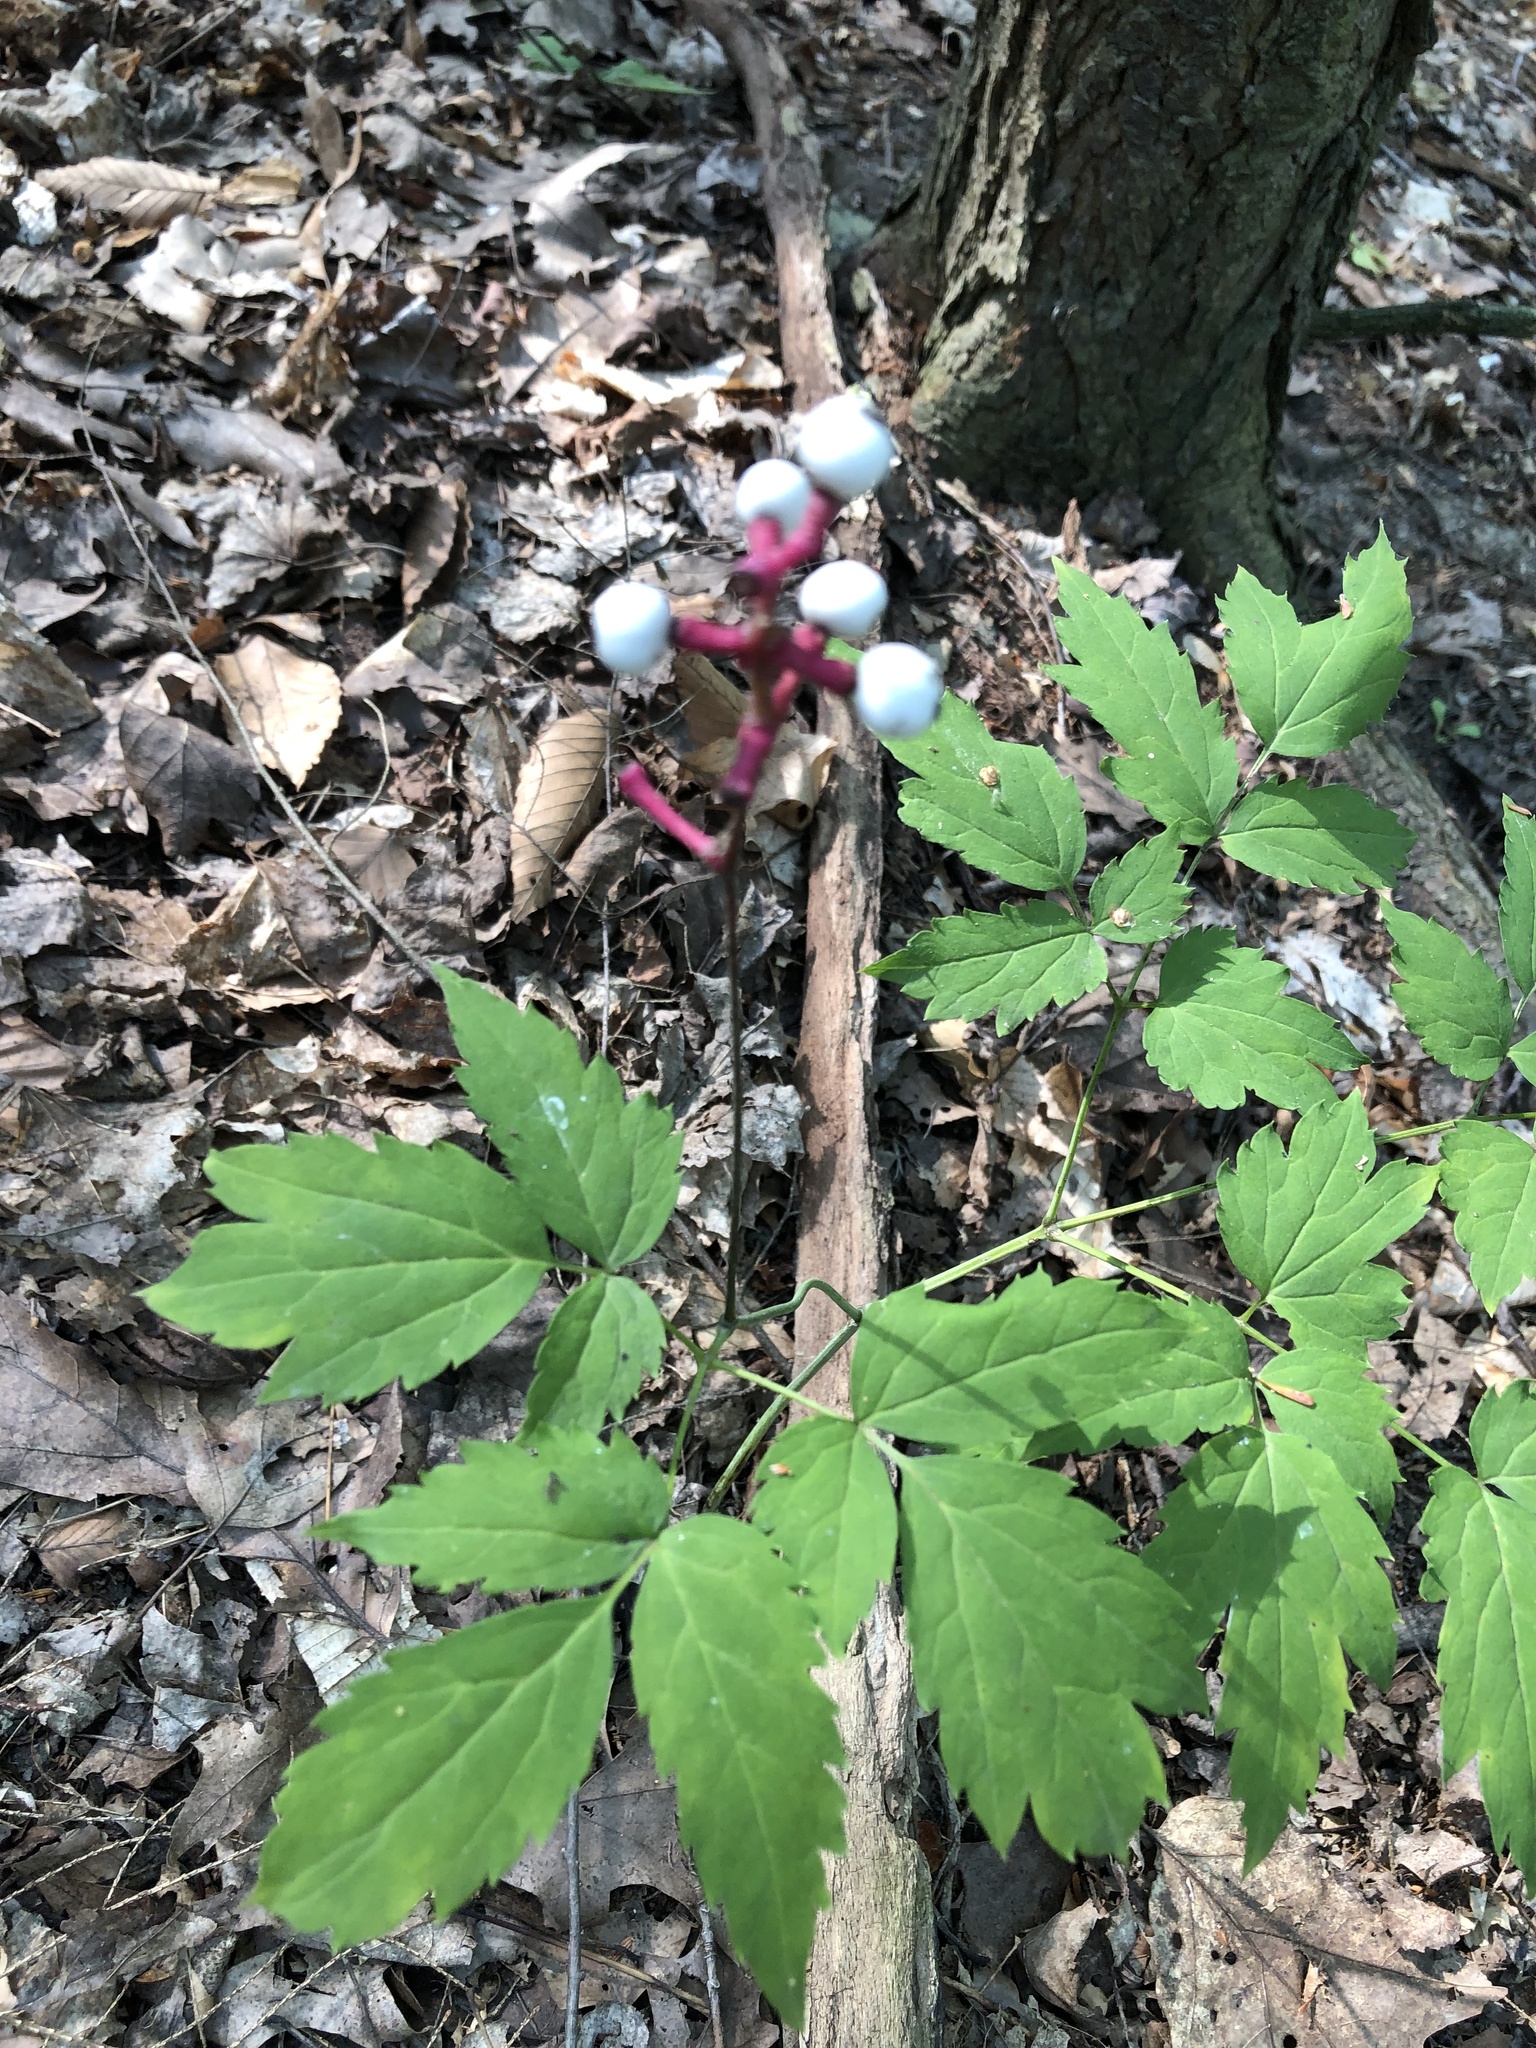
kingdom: Plantae
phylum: Tracheophyta
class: Magnoliopsida
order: Ranunculales
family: Ranunculaceae
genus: Actaea
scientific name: Actaea pachypoda
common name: Doll's-eyes
